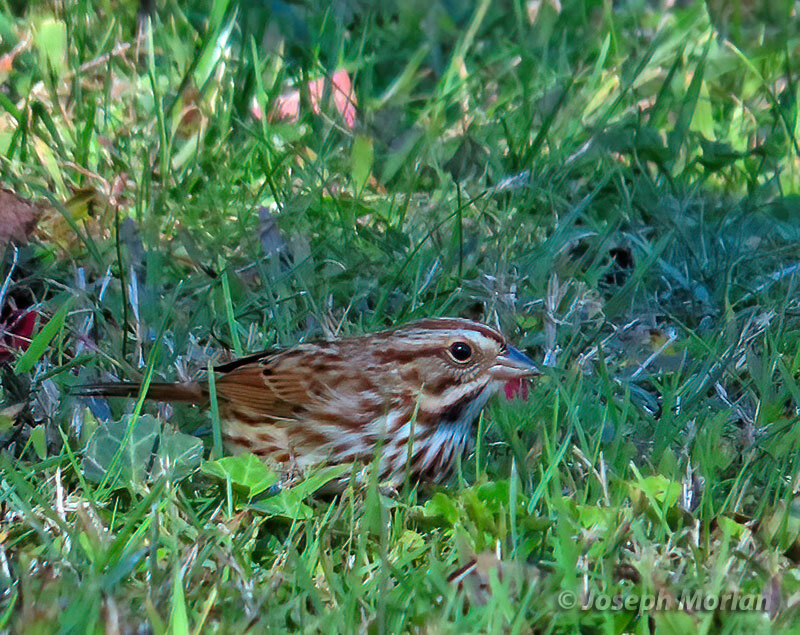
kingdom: Animalia
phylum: Chordata
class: Aves
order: Passeriformes
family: Passerellidae
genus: Melospiza
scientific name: Melospiza melodia
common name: Song sparrow
